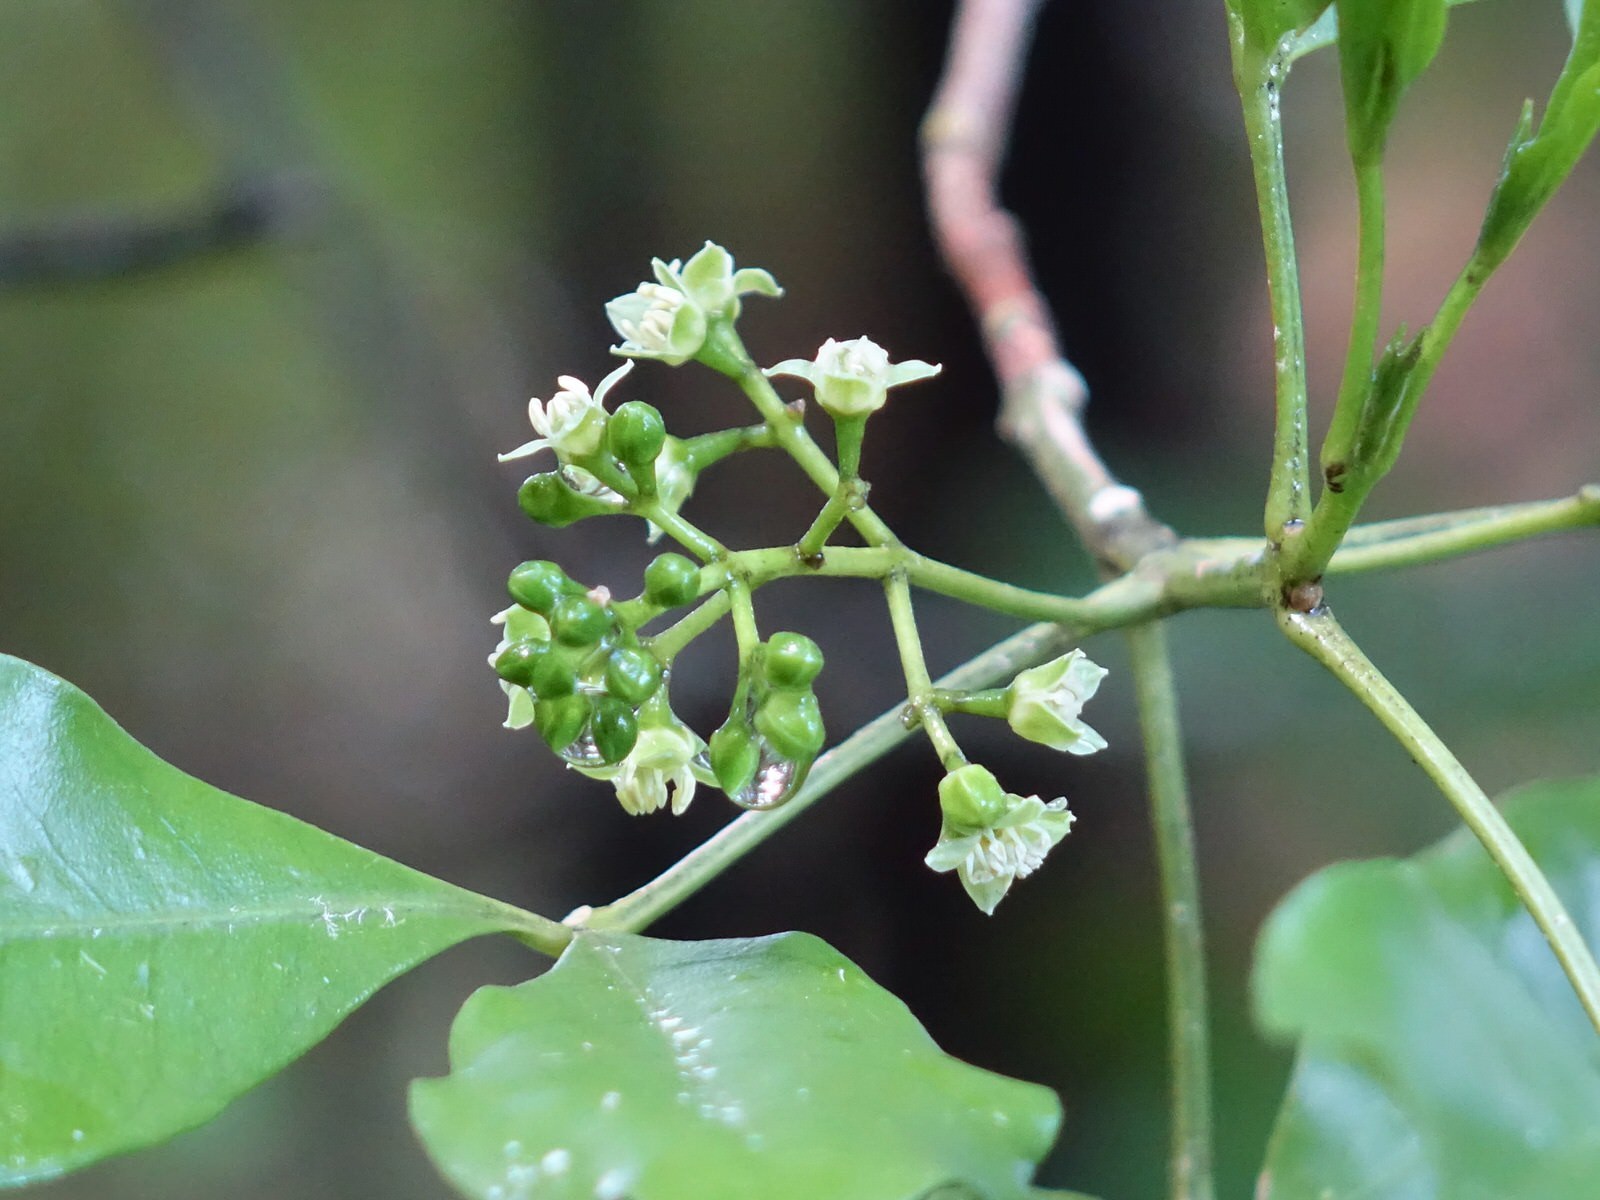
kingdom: Plantae
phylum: Tracheophyta
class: Magnoliopsida
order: Sapindales
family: Rutaceae
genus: Melicope
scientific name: Melicope ternata
